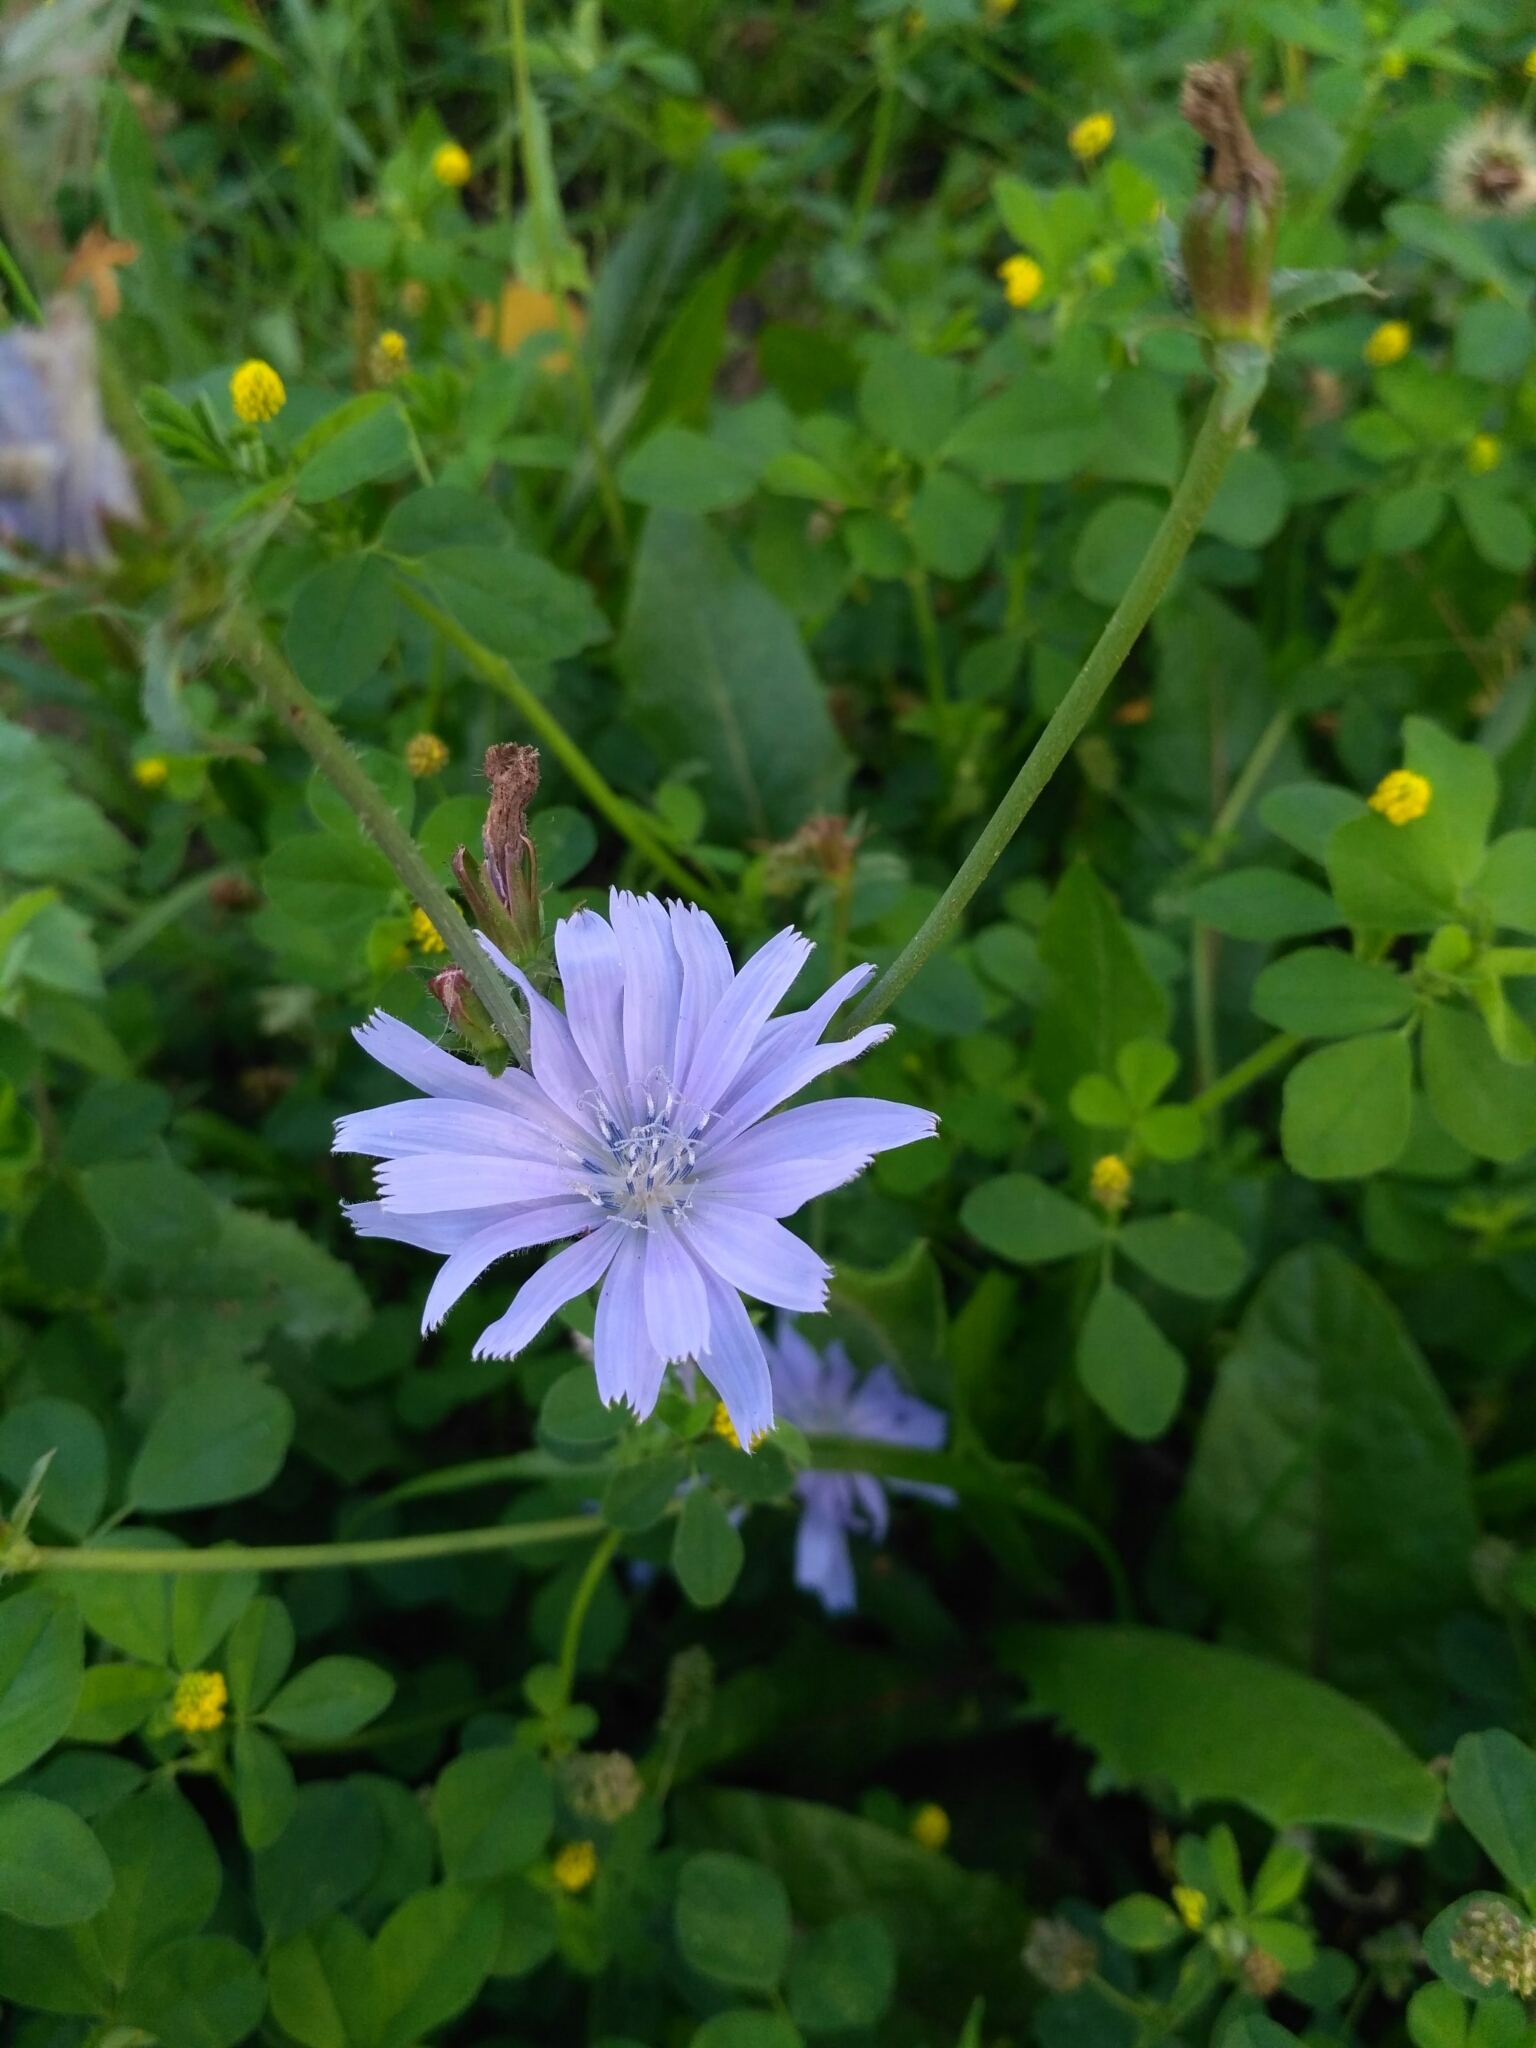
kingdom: Plantae
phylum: Tracheophyta
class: Magnoliopsida
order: Asterales
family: Asteraceae
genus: Cichorium
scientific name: Cichorium intybus
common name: Chicory
